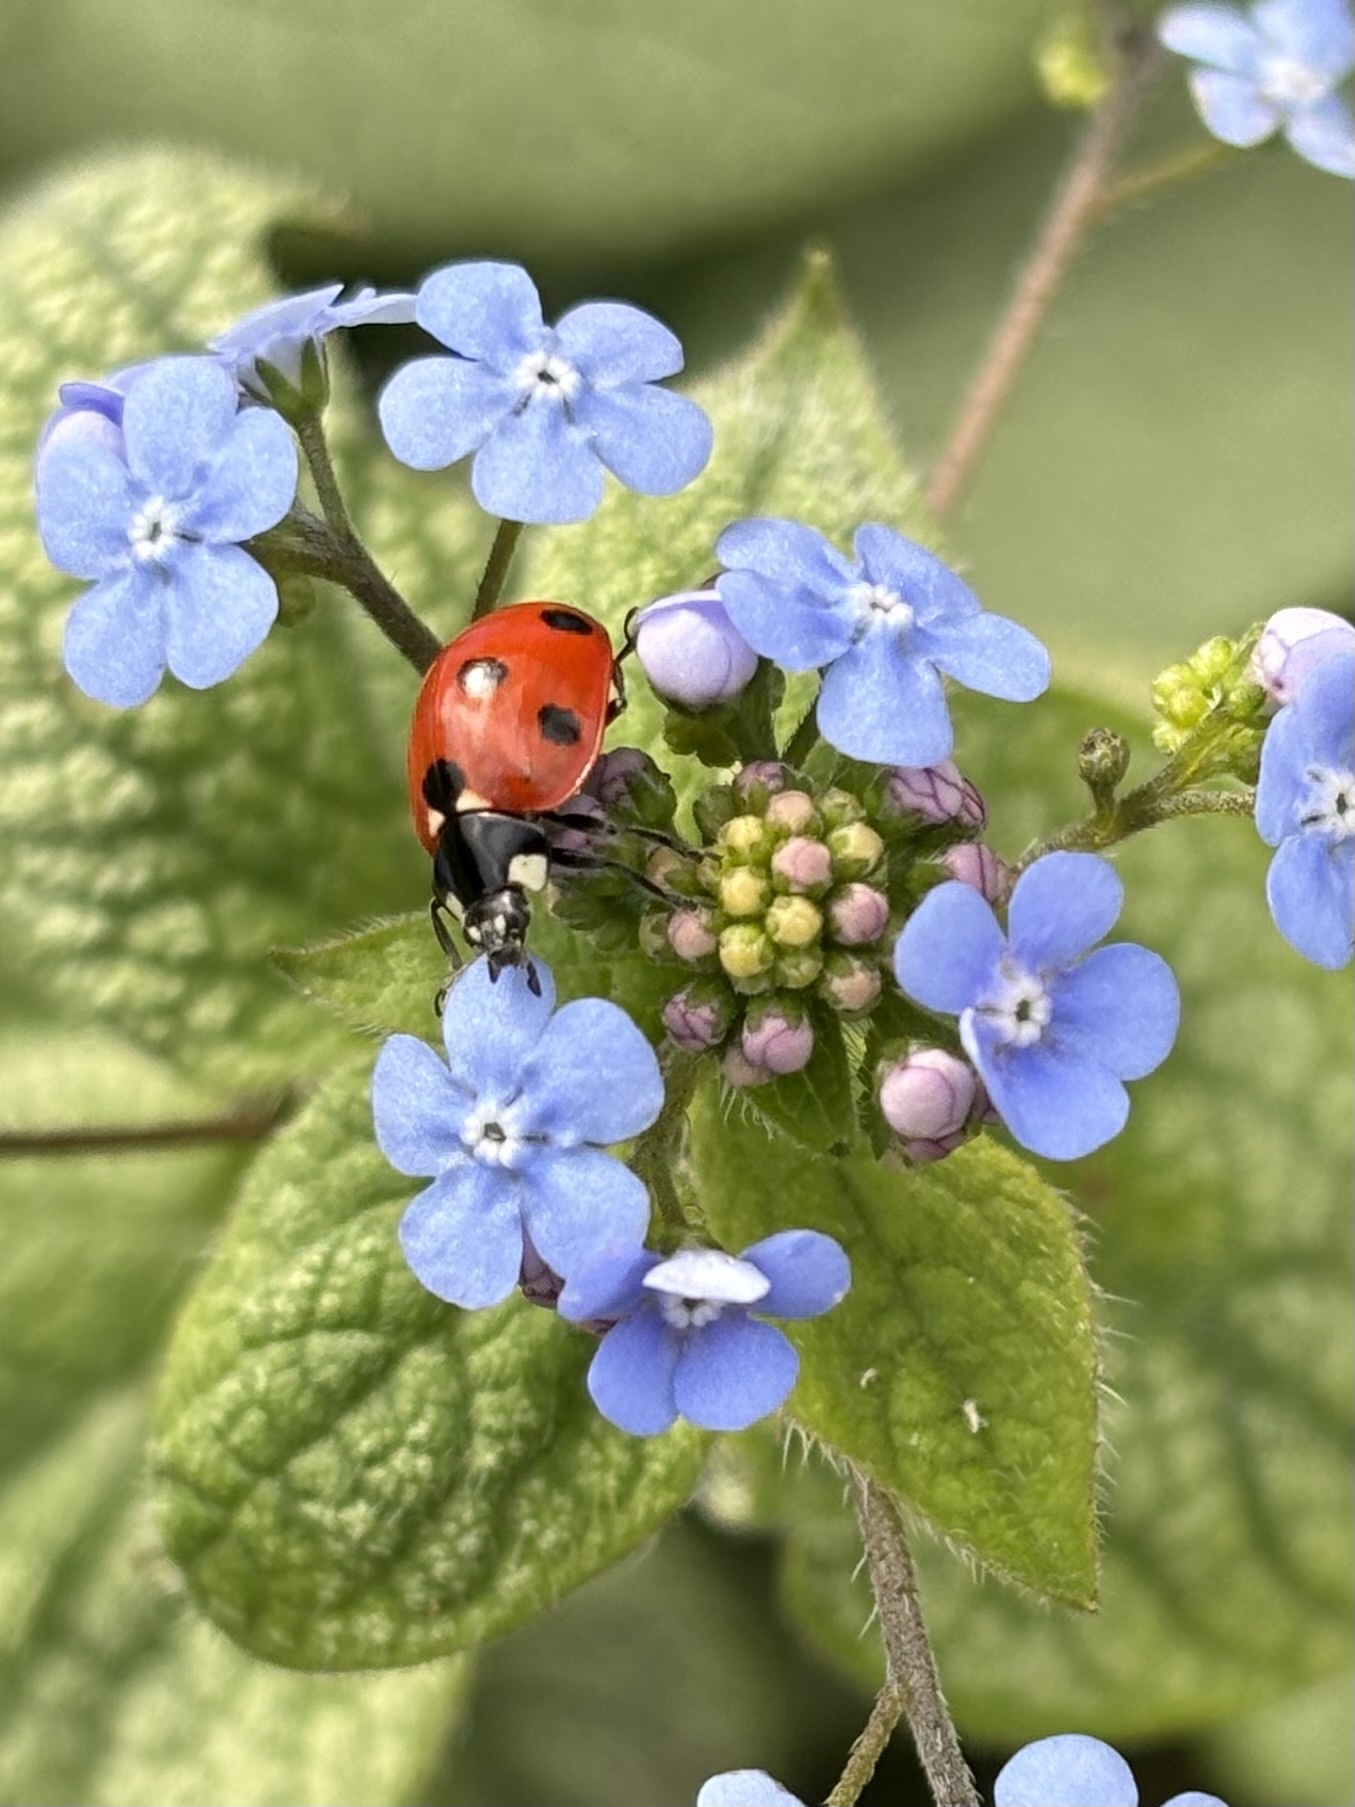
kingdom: Animalia
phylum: Arthropoda
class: Insecta
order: Coleoptera
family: Coccinellidae
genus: Coccinella
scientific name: Coccinella septempunctata
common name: Sevenspotted lady beetle
